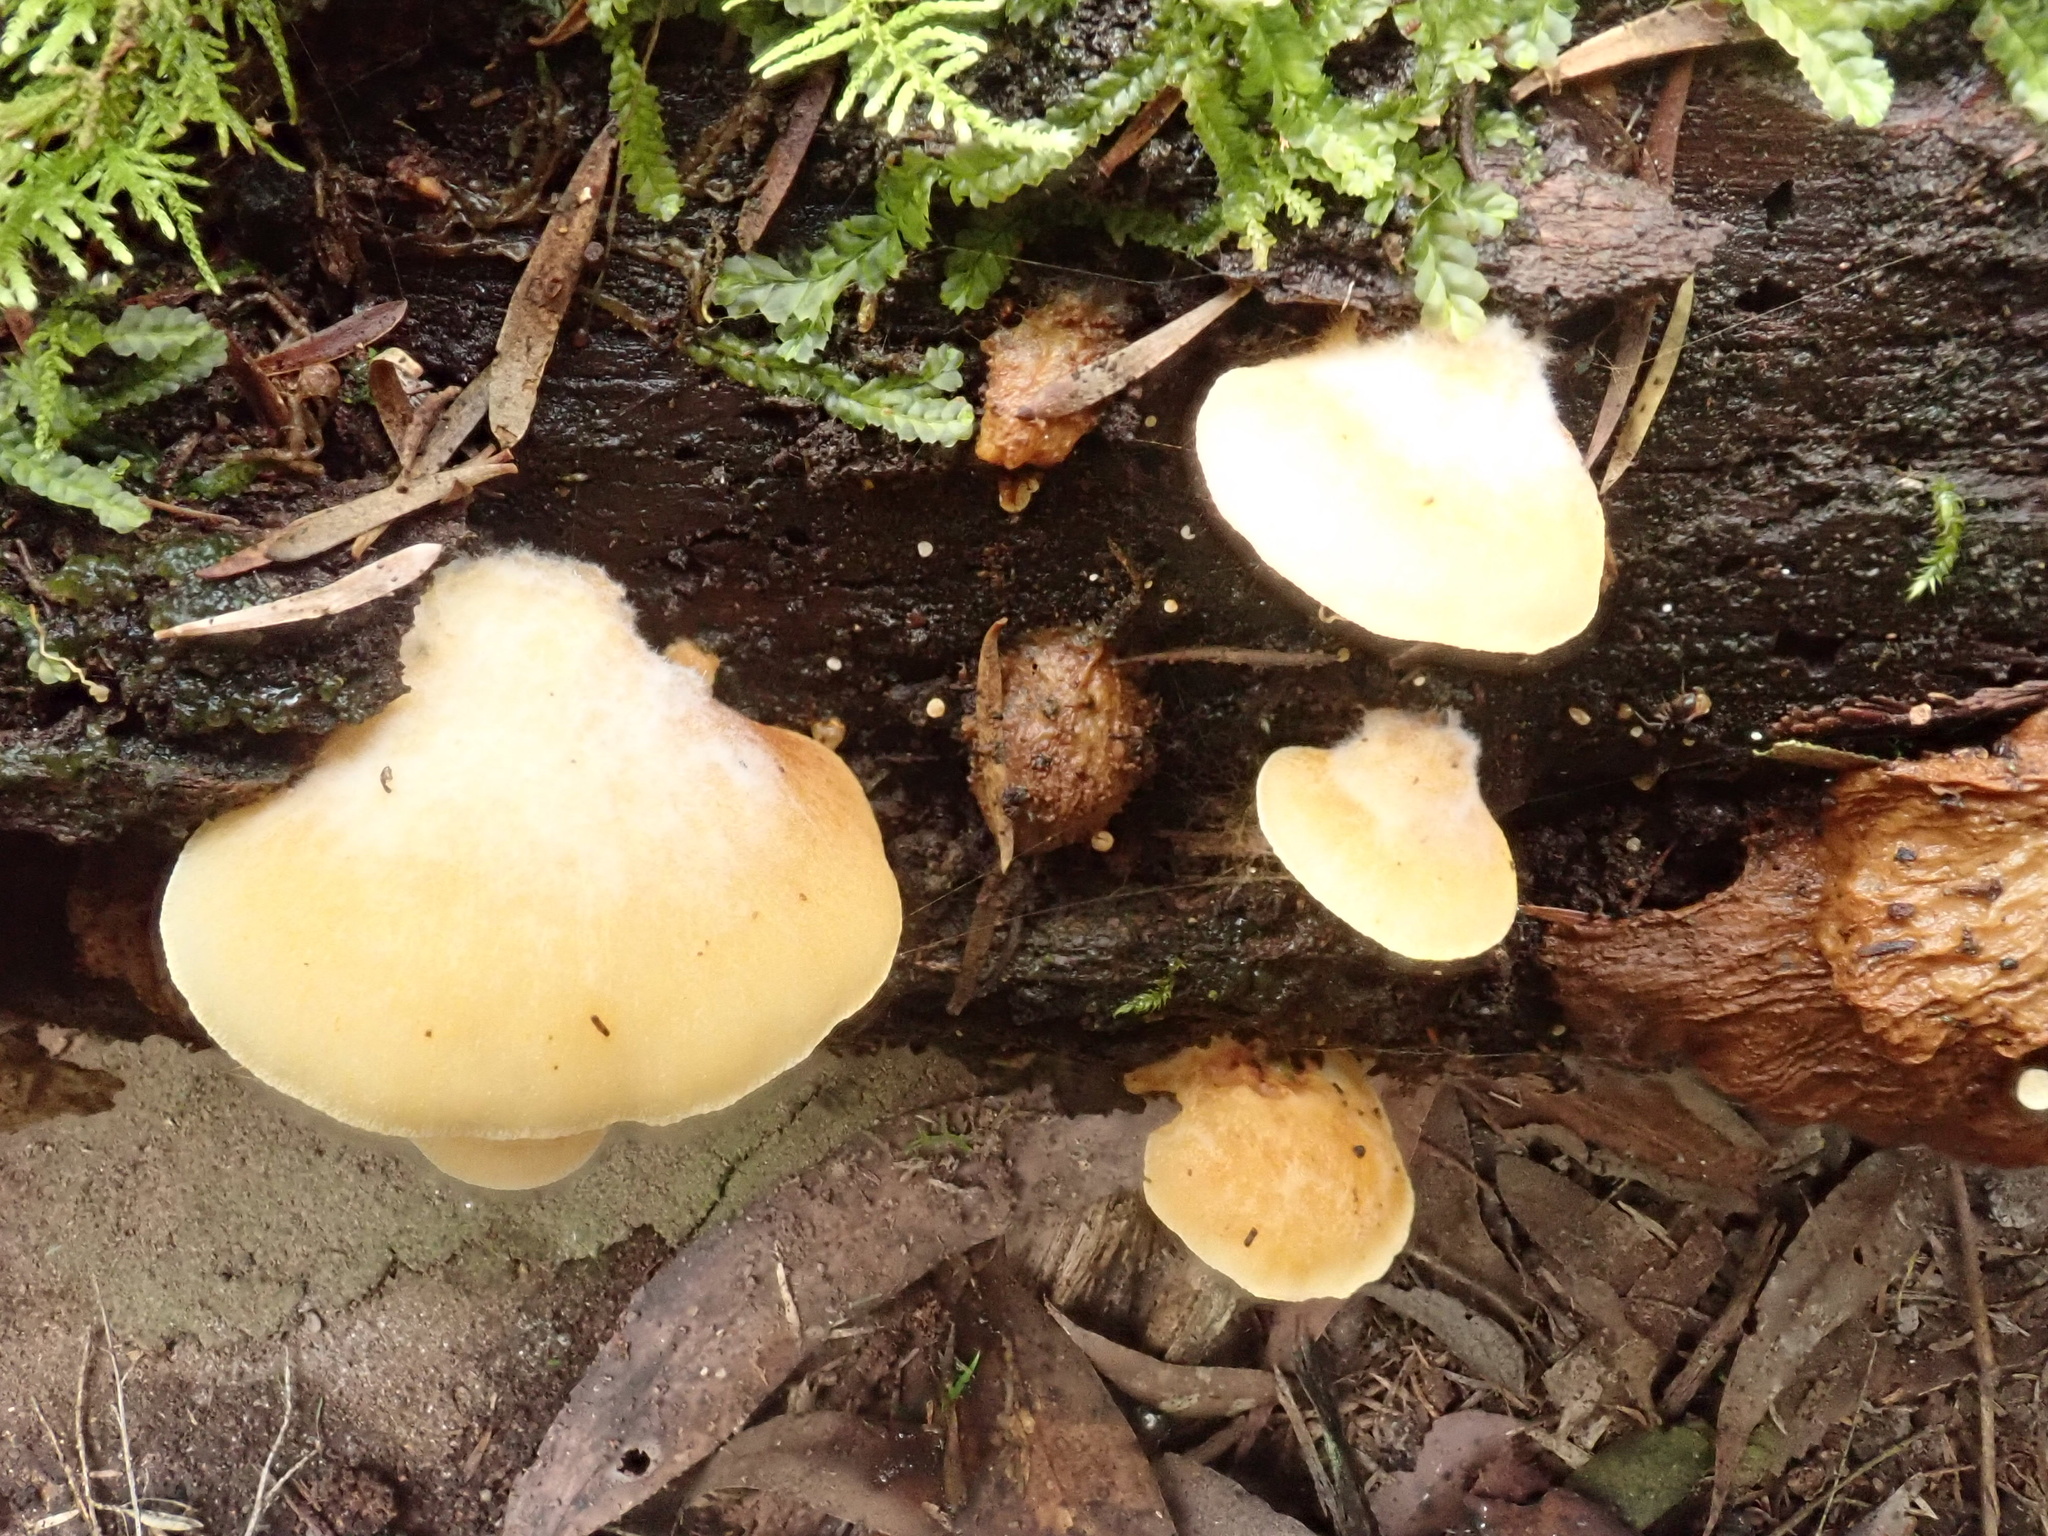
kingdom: Fungi
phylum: Basidiomycota
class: Agaricomycetes
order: Agaricales
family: Crepidotaceae
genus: Crepidotus
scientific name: Crepidotus nephrodes
